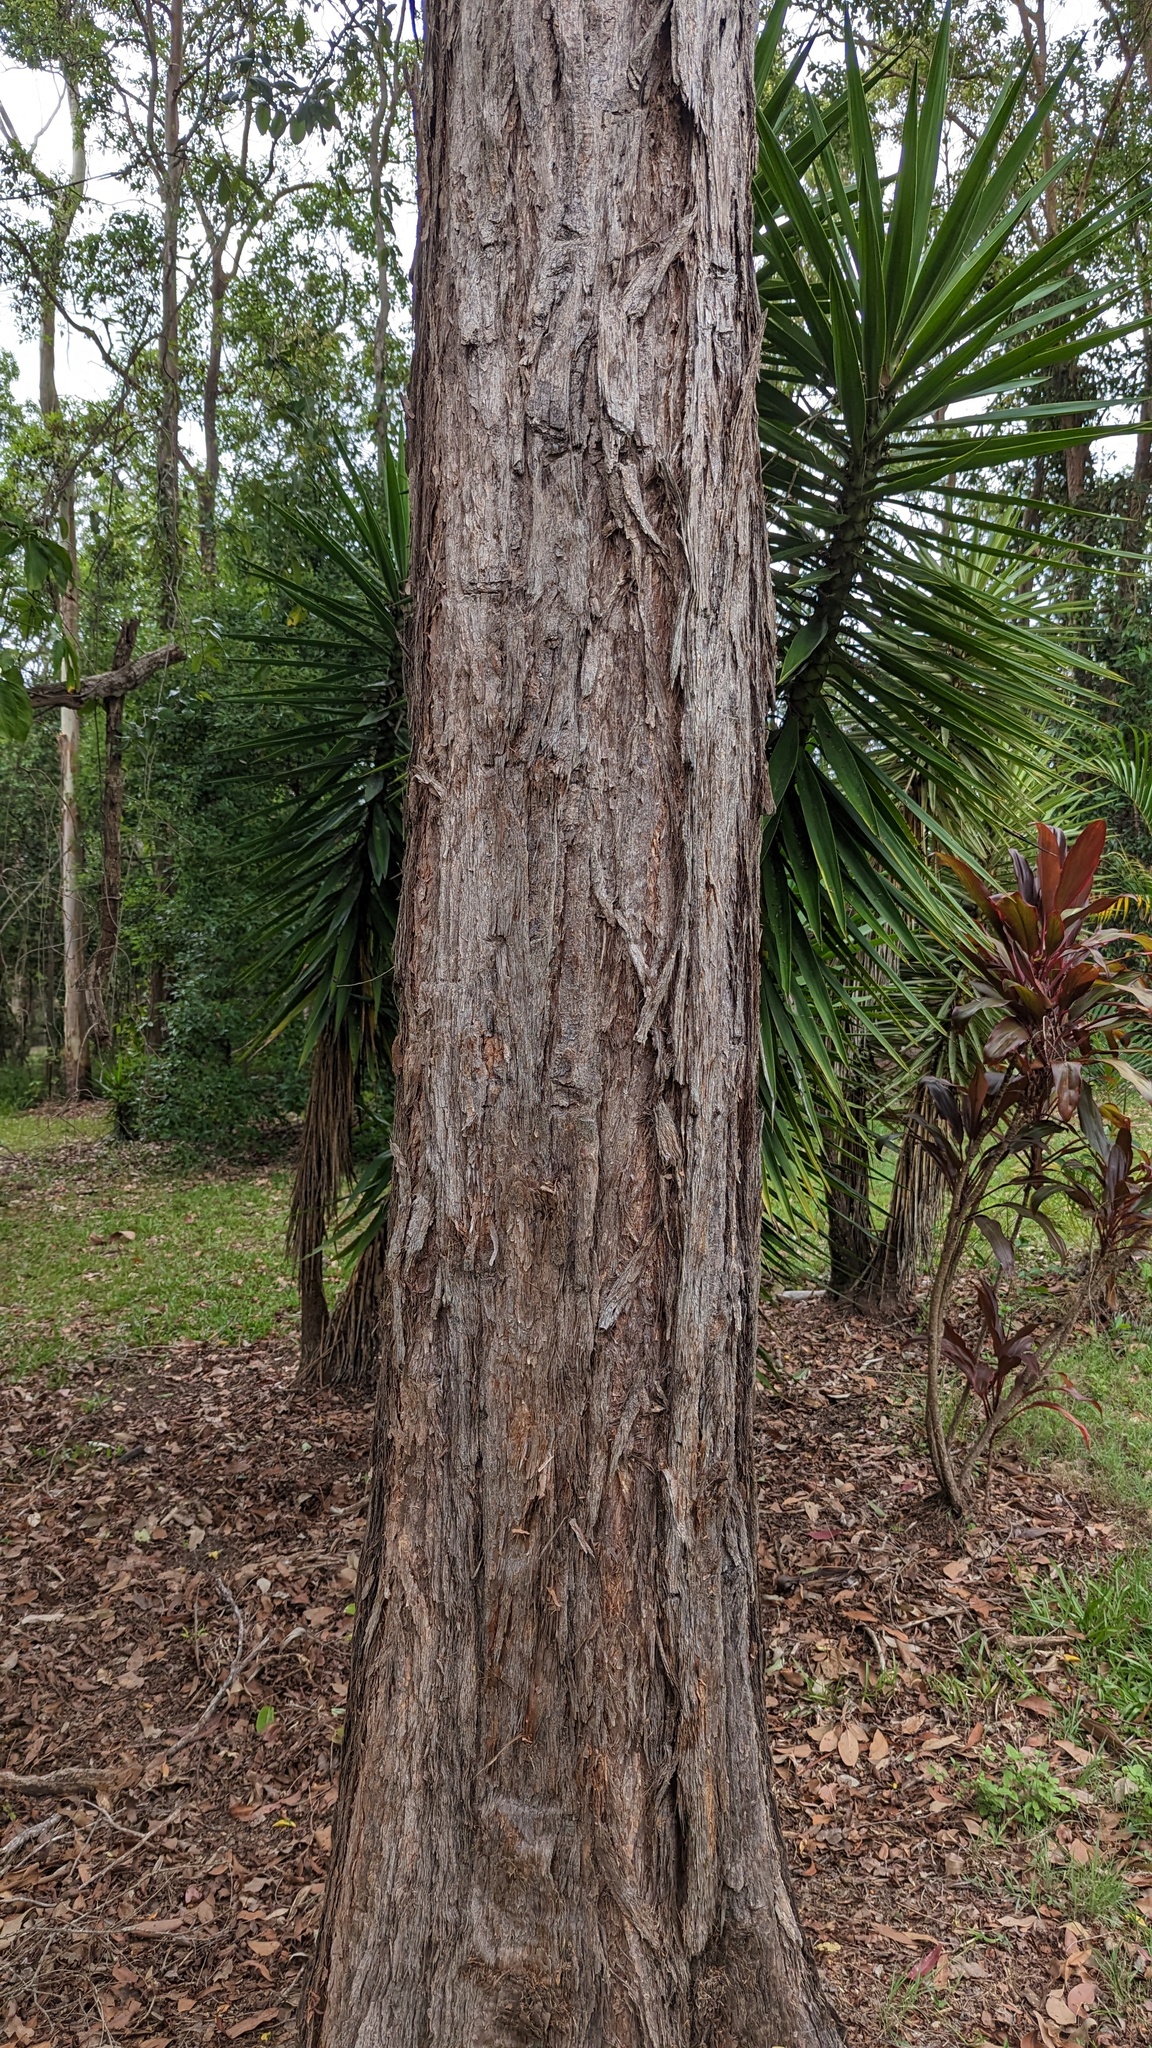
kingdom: Plantae
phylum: Tracheophyta
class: Magnoliopsida
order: Myrtales
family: Myrtaceae
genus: Lophostemon
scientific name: Lophostemon suaveolens
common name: Paperbark-mahogany
